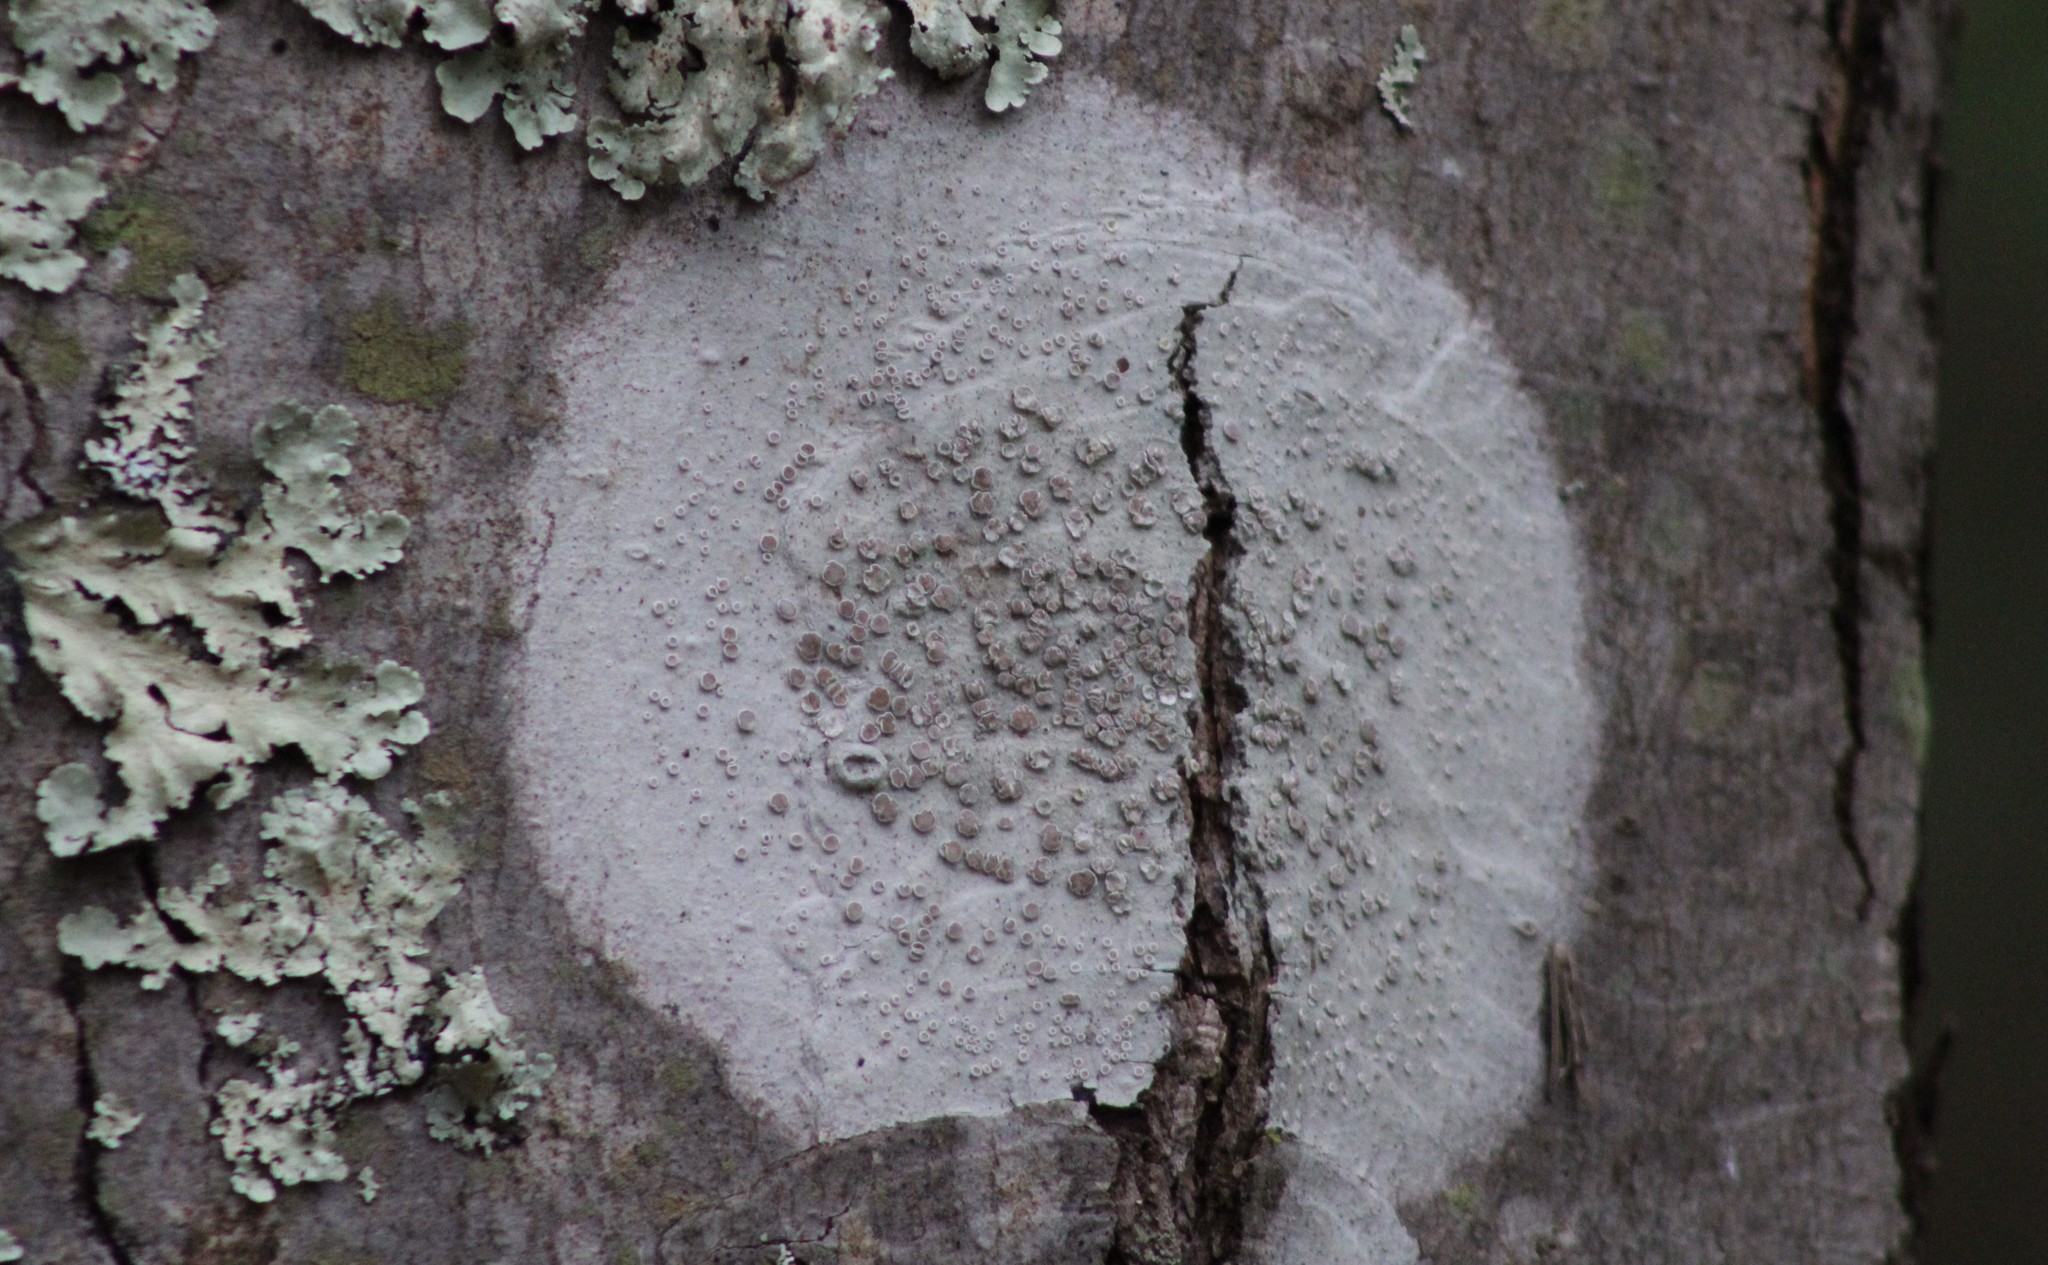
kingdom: Fungi
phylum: Ascomycota
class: Lecanoromycetes
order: Lecanorales
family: Lecanoraceae
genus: Lecanora
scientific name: Lecanora protervula
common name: Lesser dust my discs
